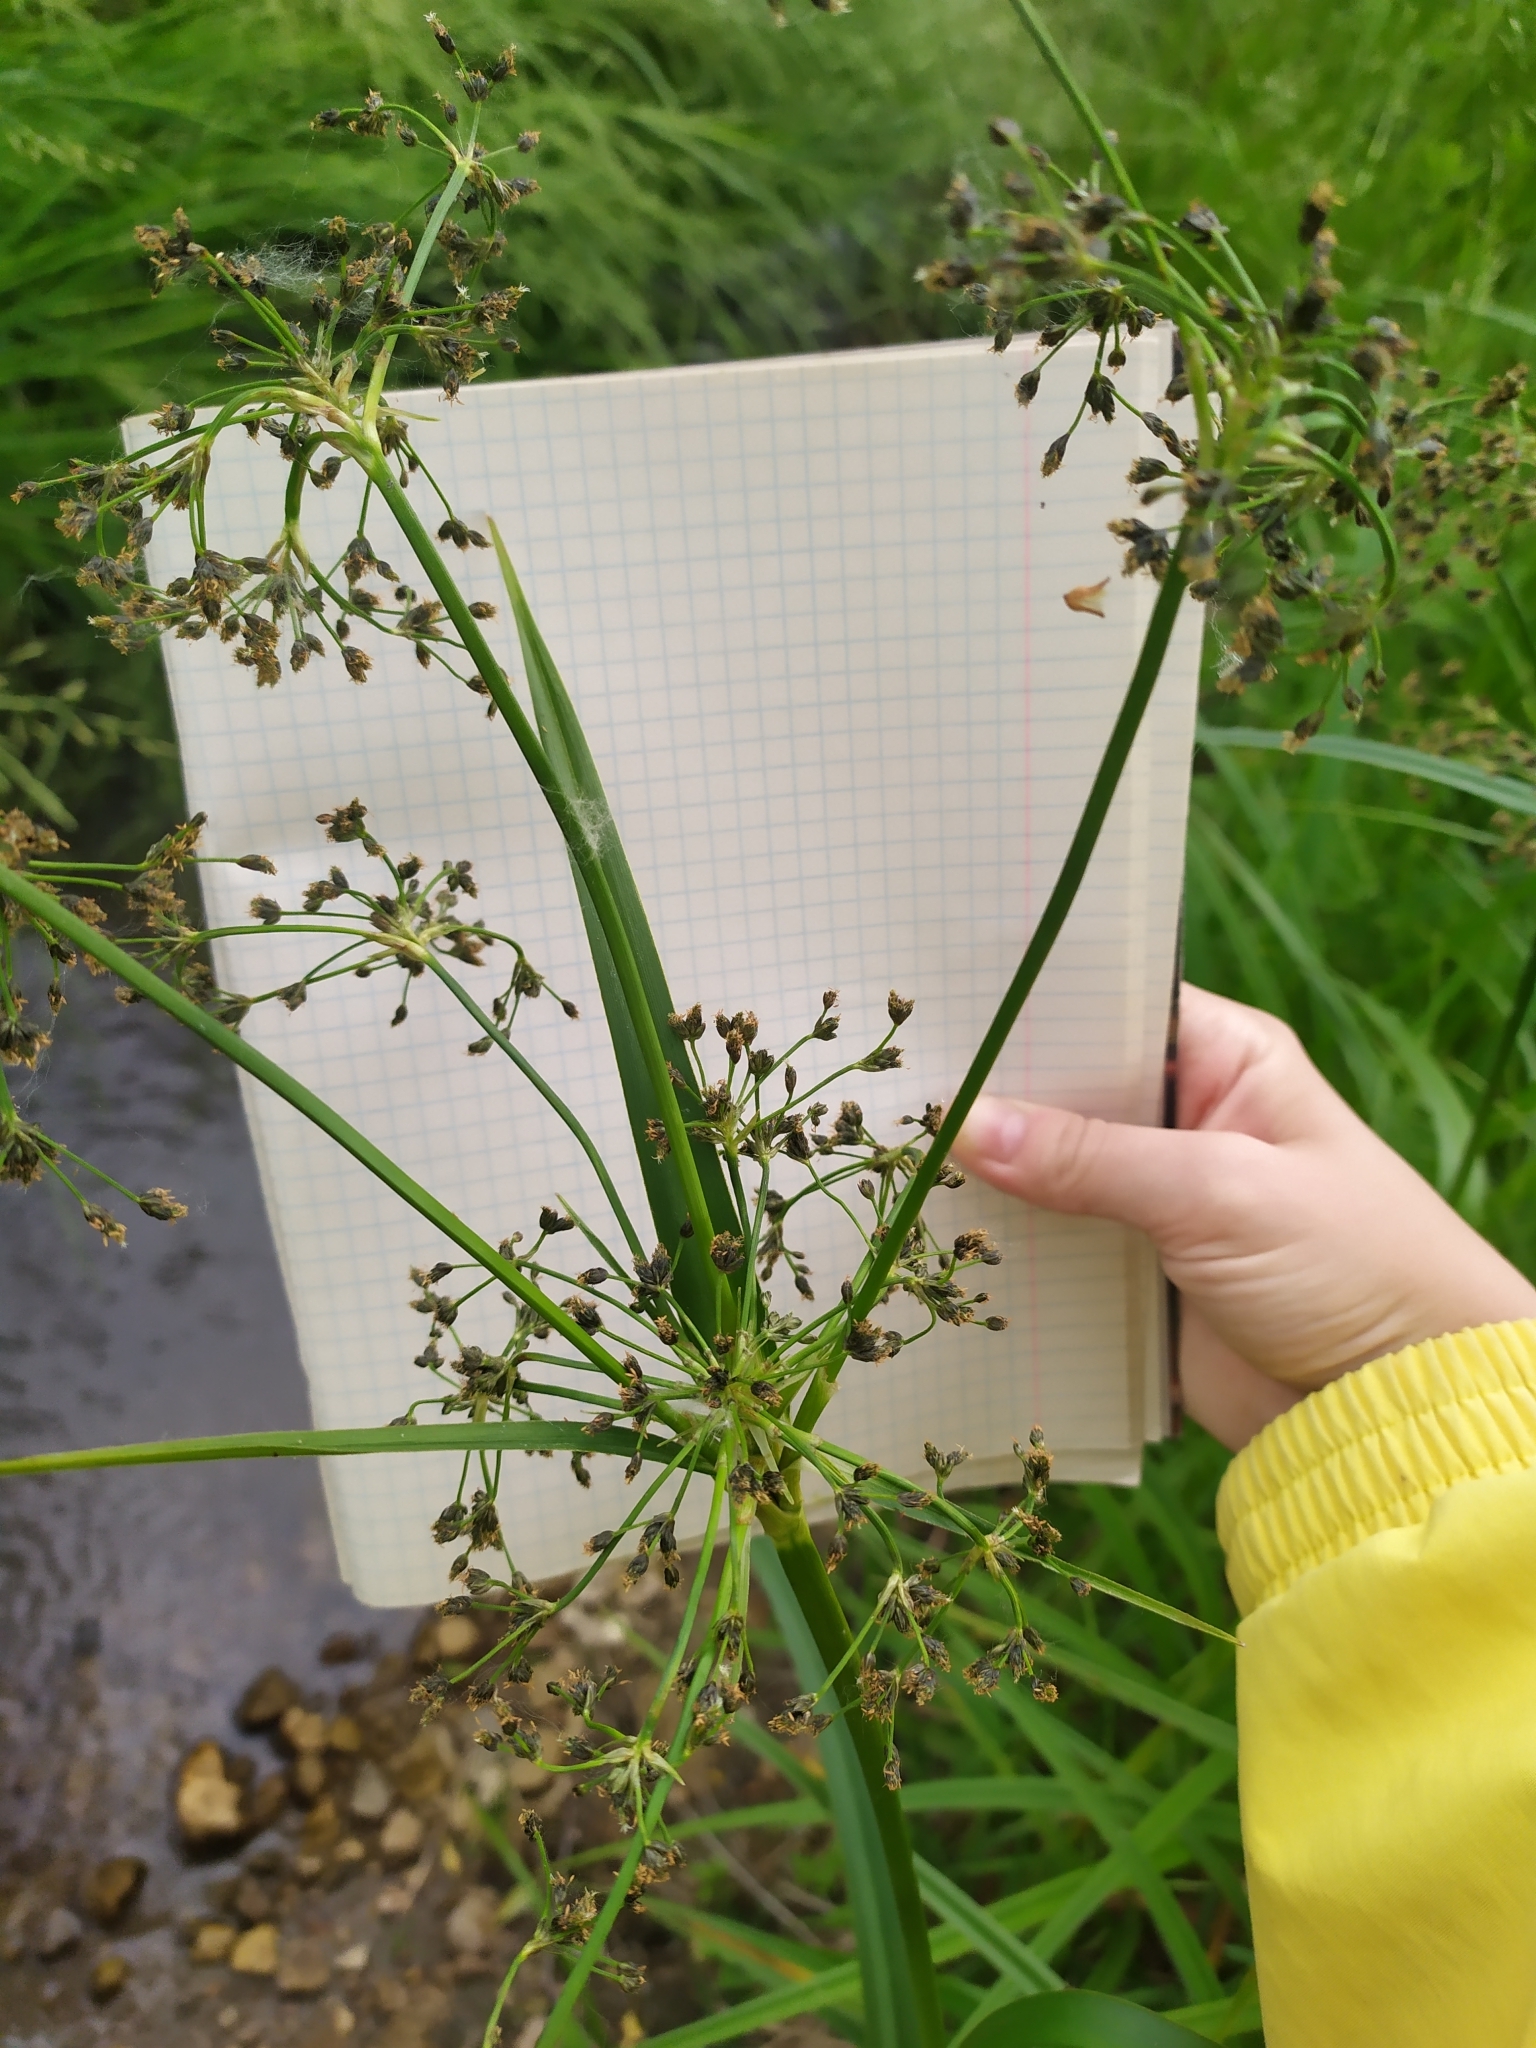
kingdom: Plantae
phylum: Tracheophyta
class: Liliopsida
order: Poales
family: Cyperaceae
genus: Scirpus
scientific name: Scirpus sylvaticus
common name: Wood club-rush
